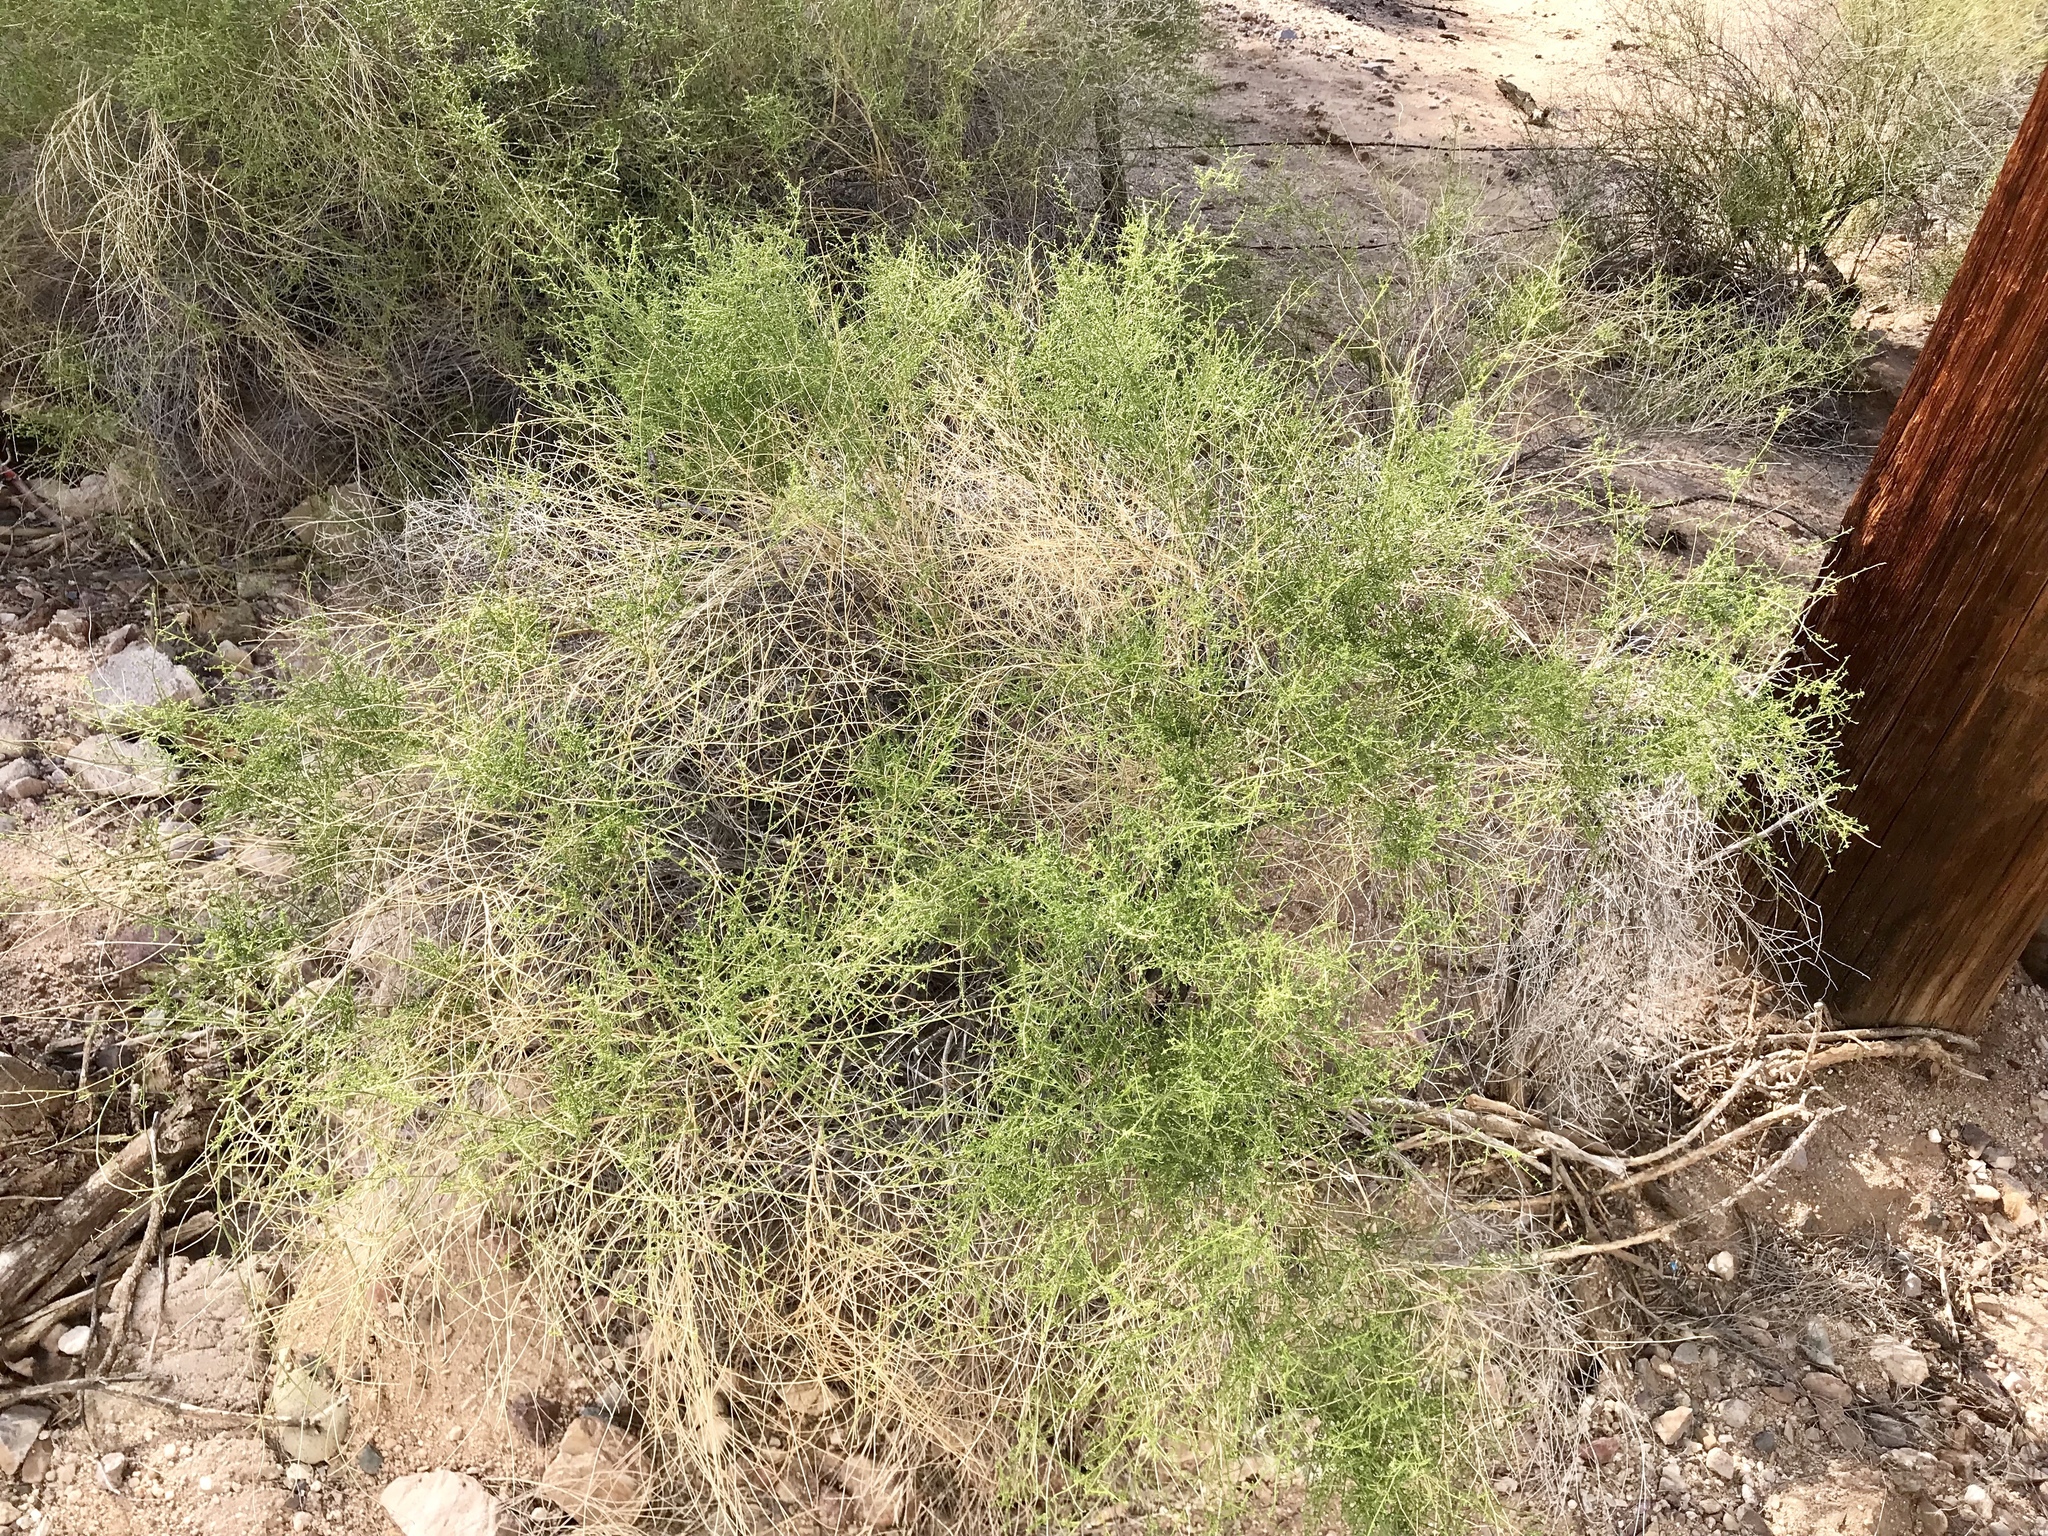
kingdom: Plantae
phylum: Tracheophyta
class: Magnoliopsida
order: Asterales
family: Asteraceae
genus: Ambrosia
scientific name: Ambrosia salsola
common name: Burrobrush
